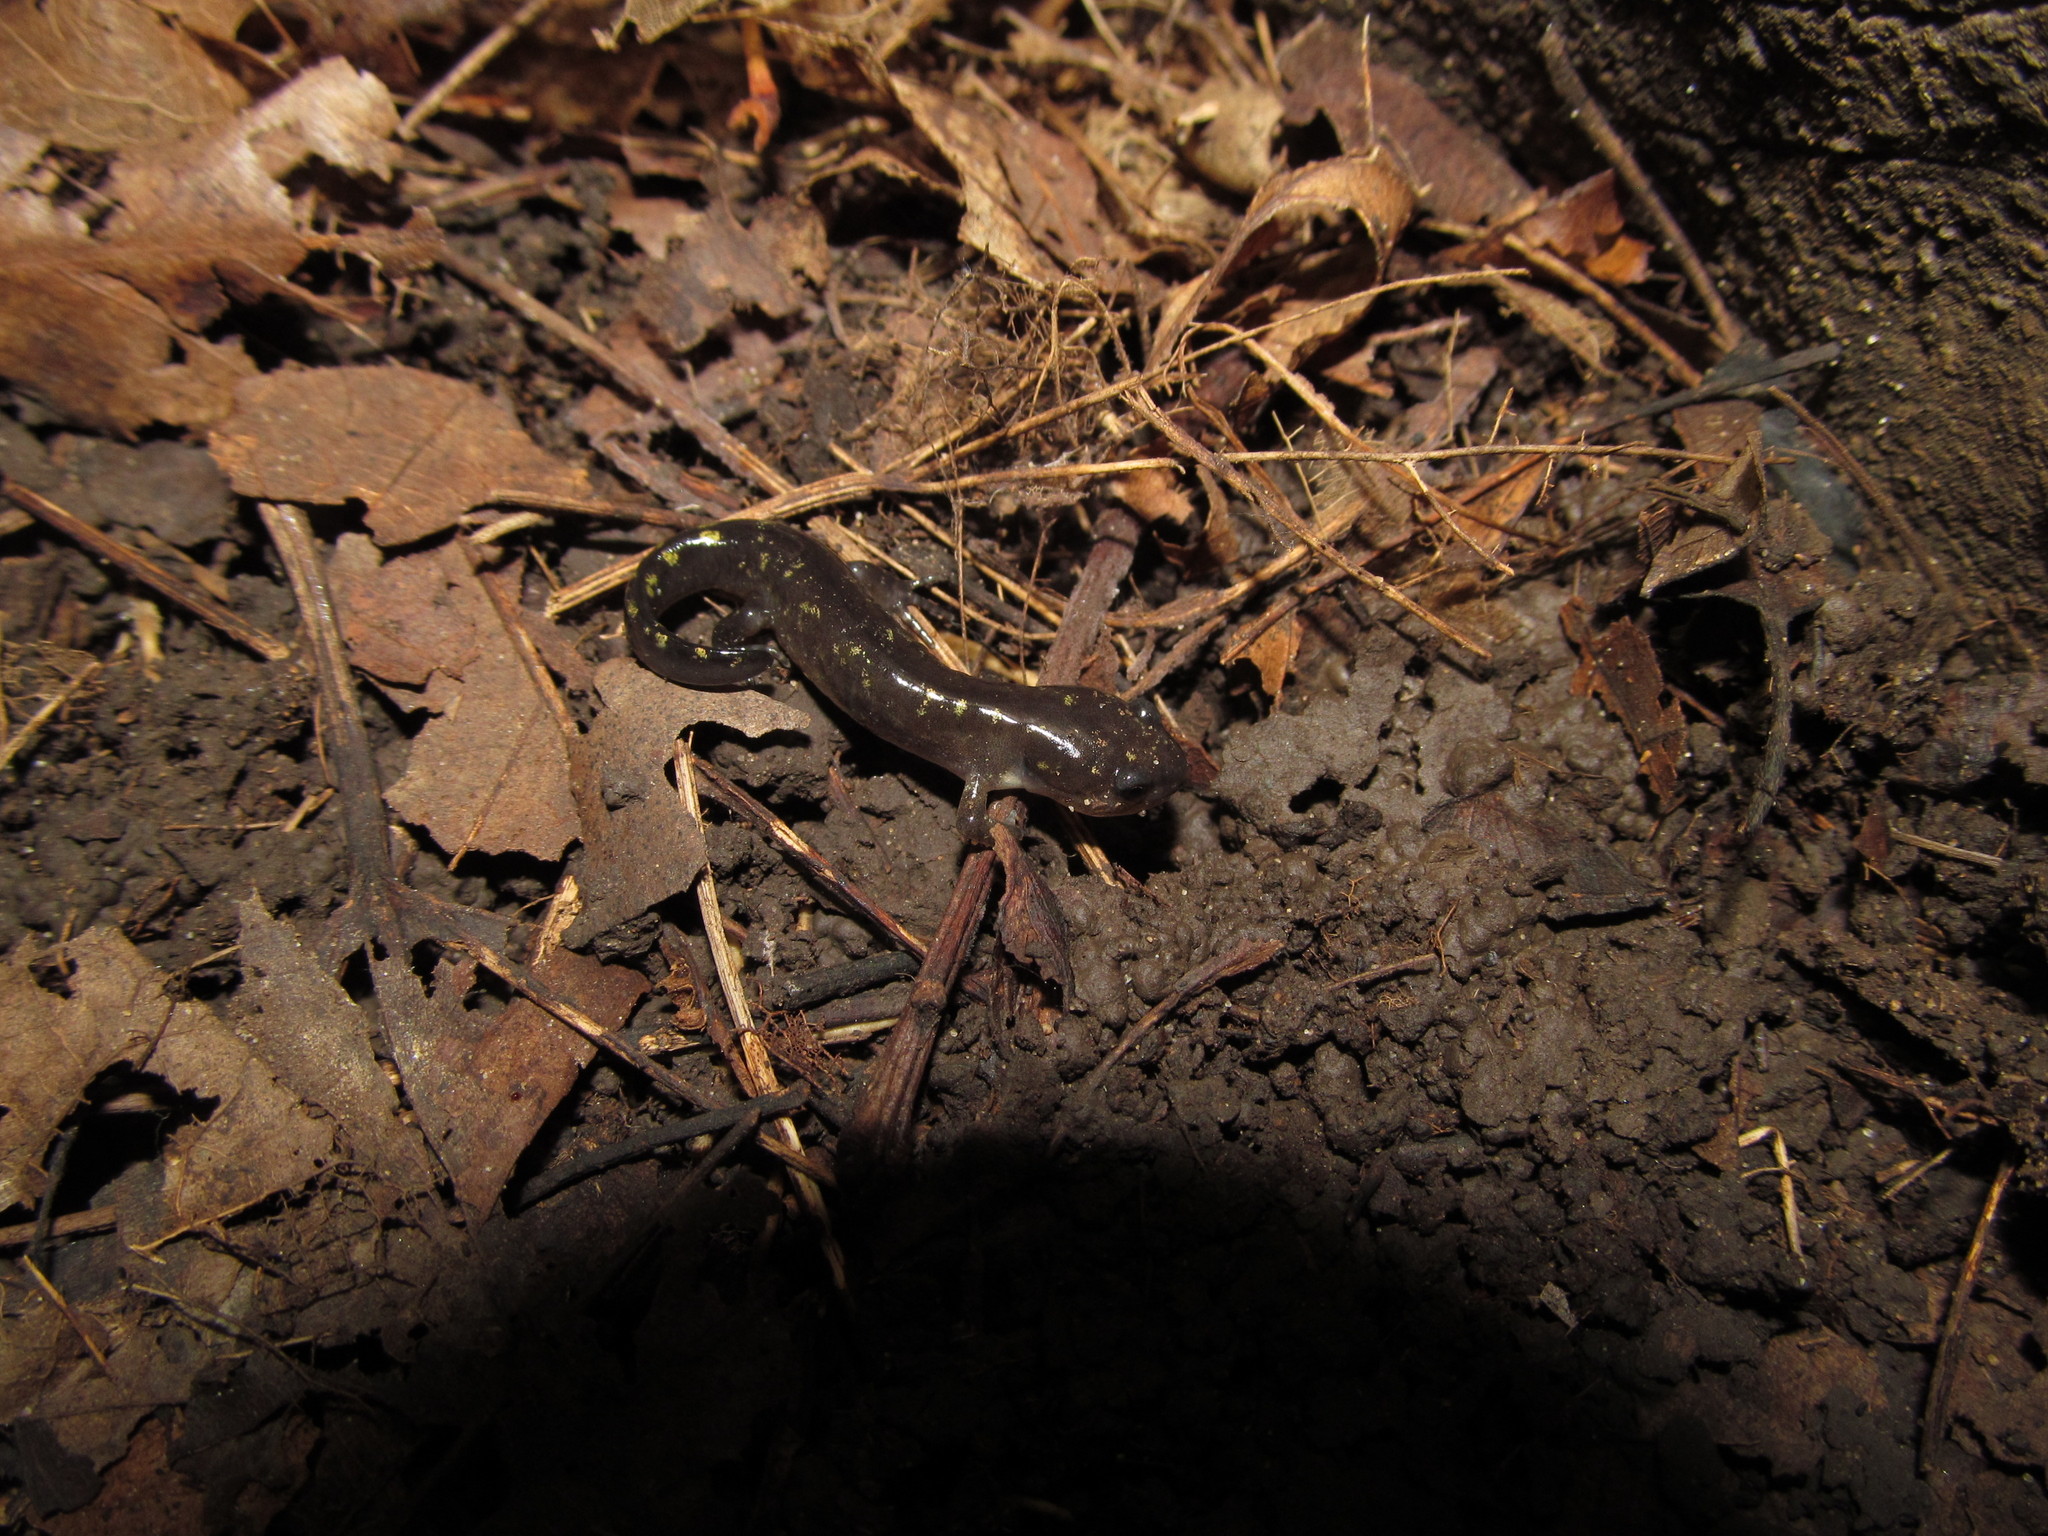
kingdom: Animalia
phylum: Chordata
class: Amphibia
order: Caudata
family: Ambystomatidae
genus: Ambystoma
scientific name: Ambystoma maculatum
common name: Spotted salamander
